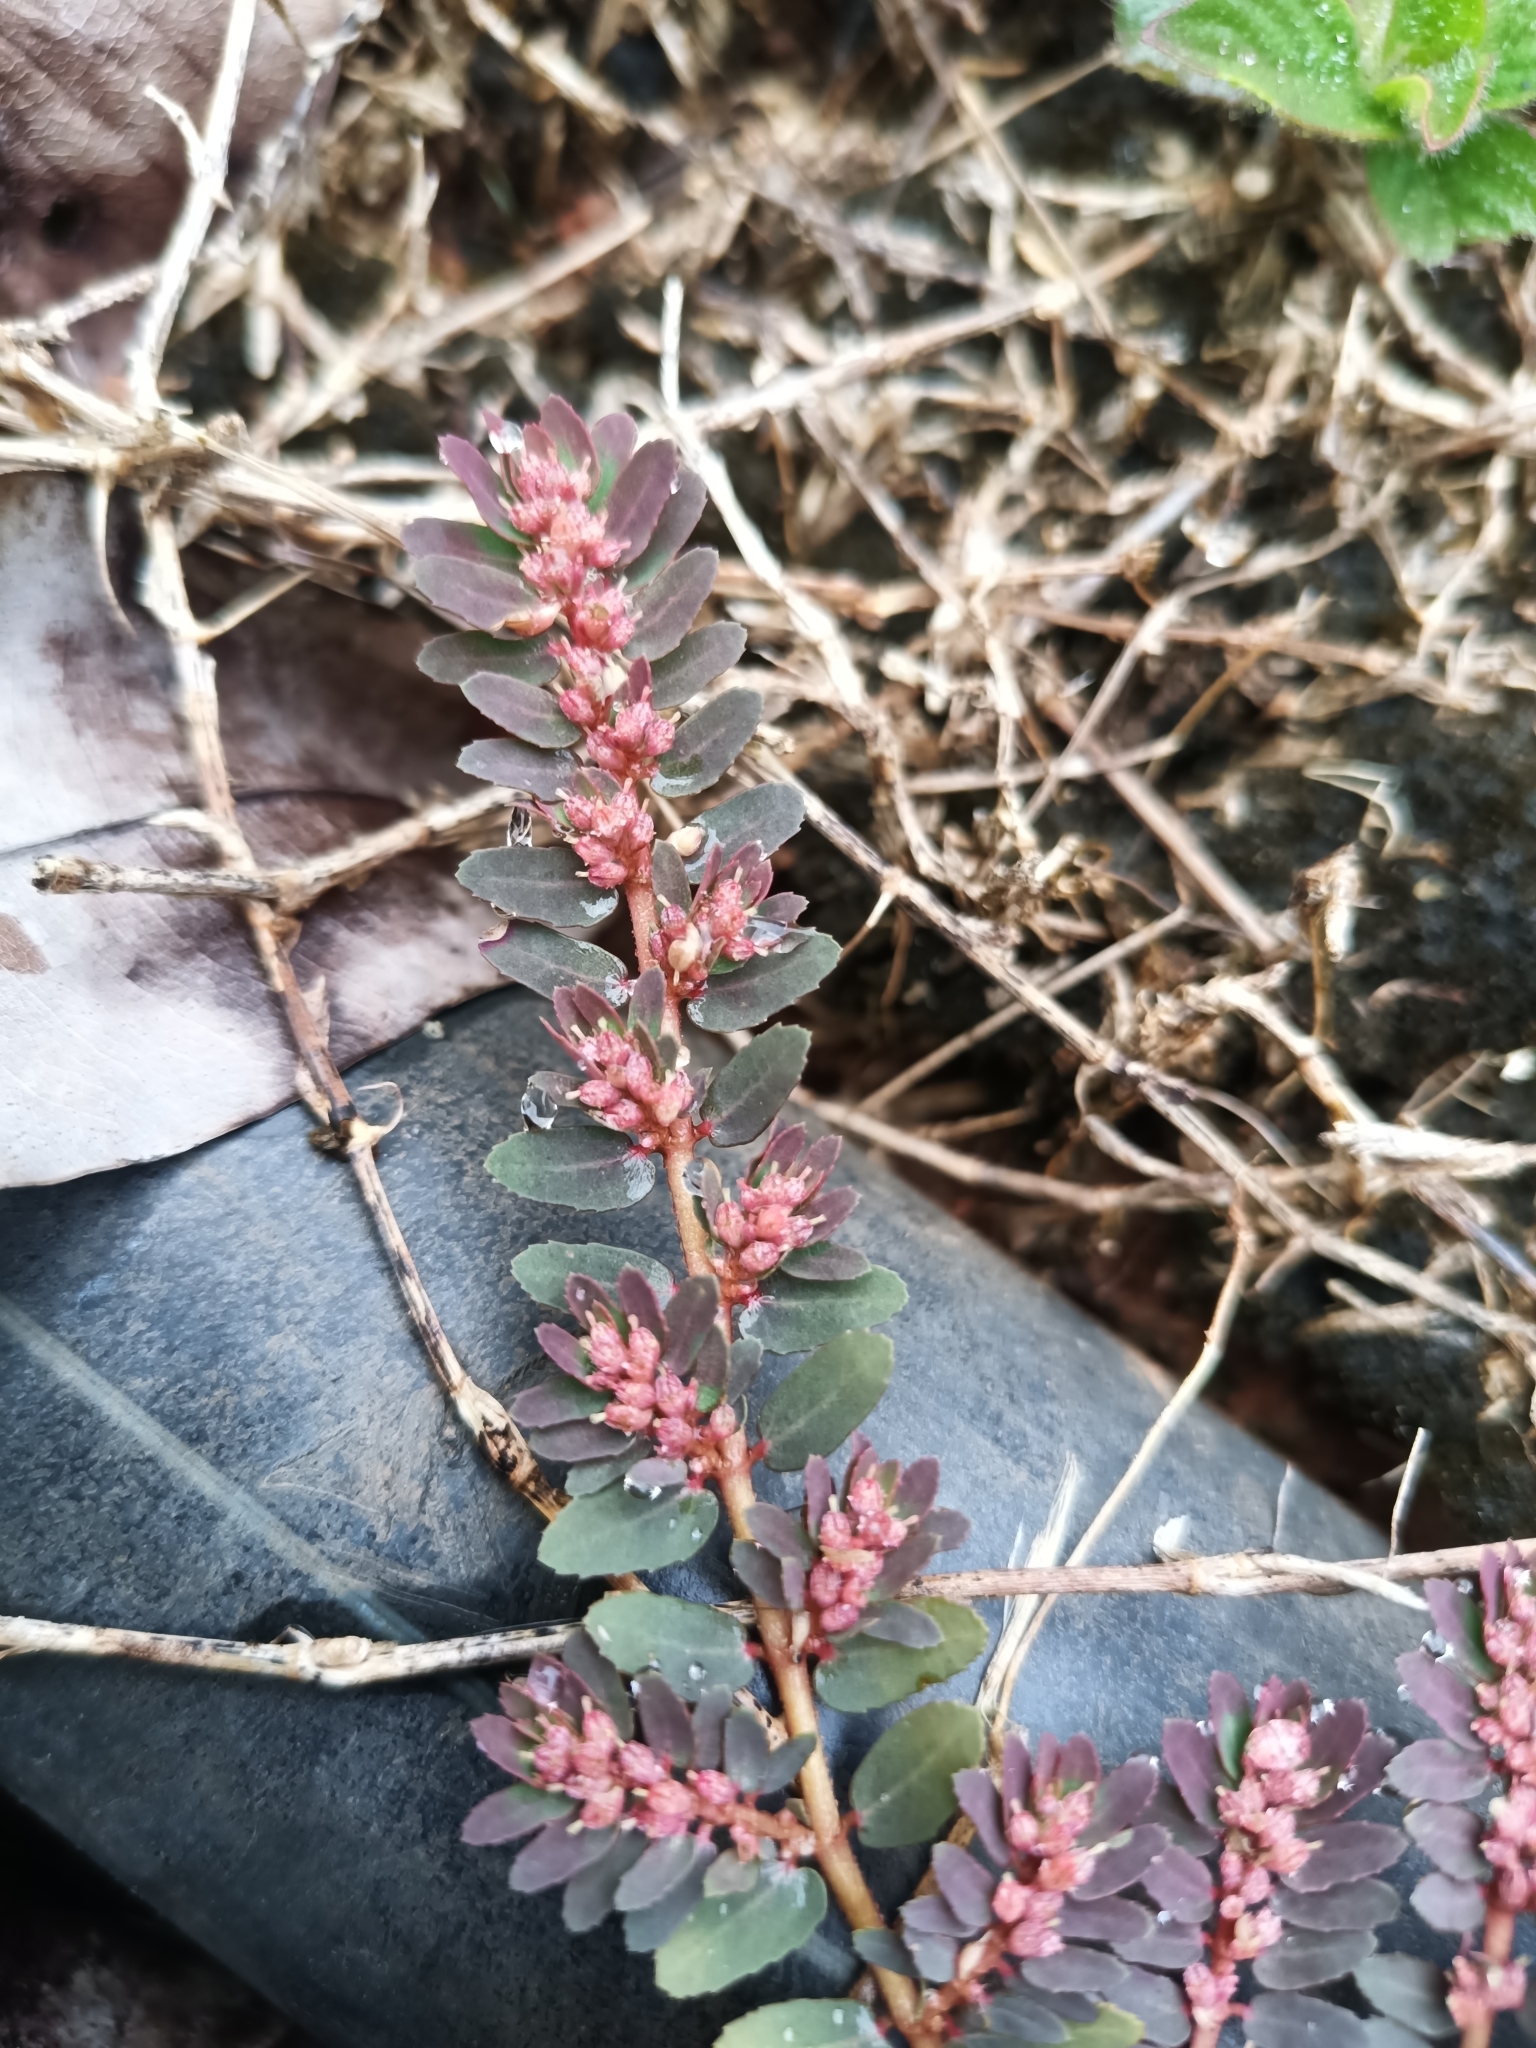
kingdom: Plantae
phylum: Tracheophyta
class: Magnoliopsida
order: Malpighiales
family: Euphorbiaceae
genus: Euphorbia
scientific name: Euphorbia thymifolia
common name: Gulf sandmat
